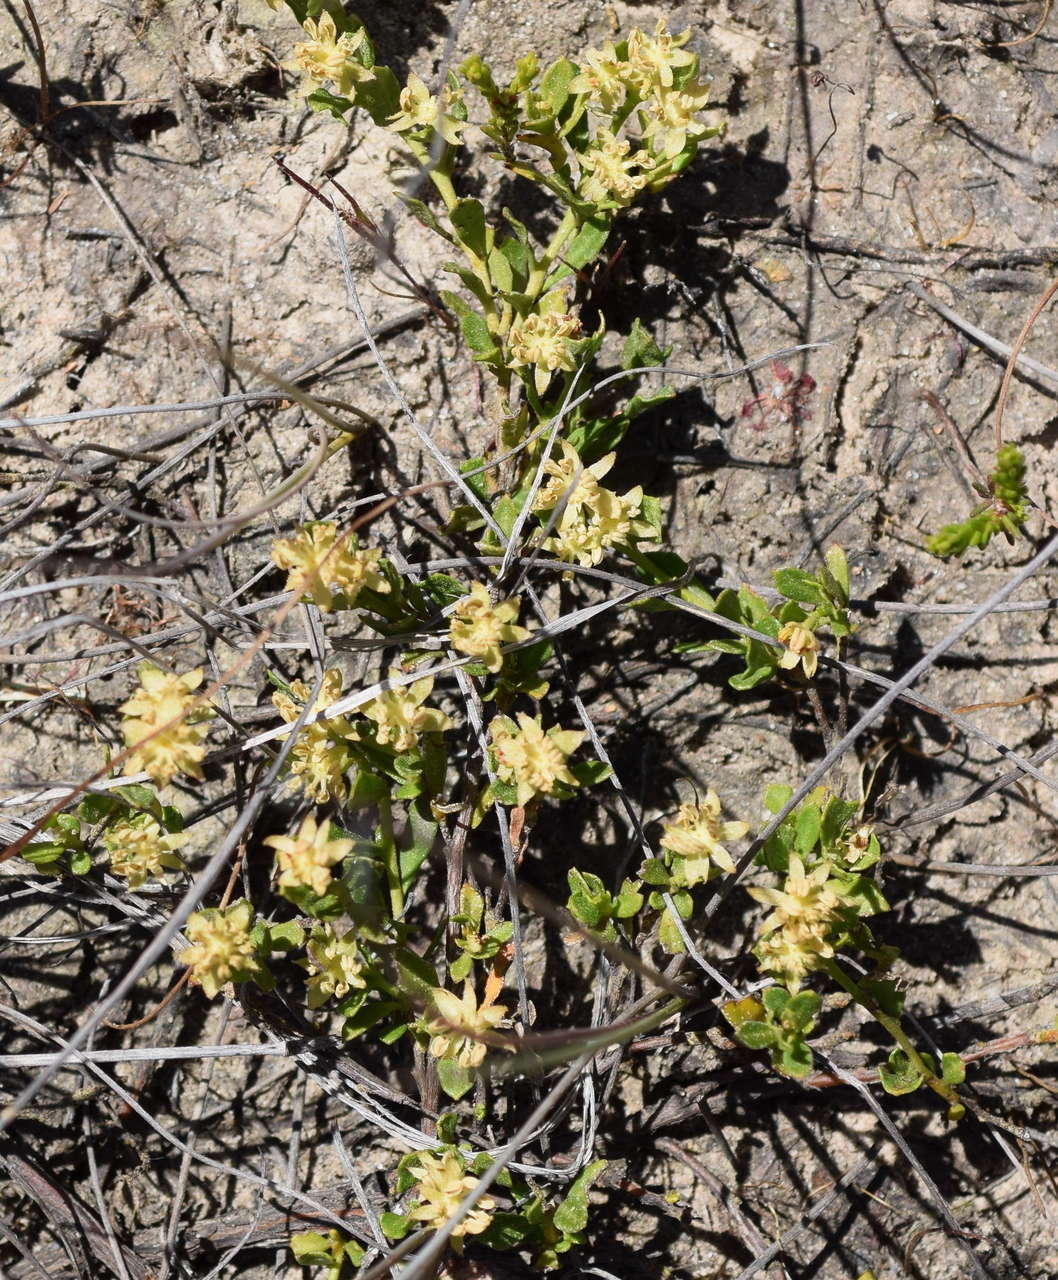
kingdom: Plantae
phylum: Tracheophyta
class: Magnoliopsida
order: Sapindales
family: Sapindaceae
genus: Dodonaea
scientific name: Dodonaea procumbens
